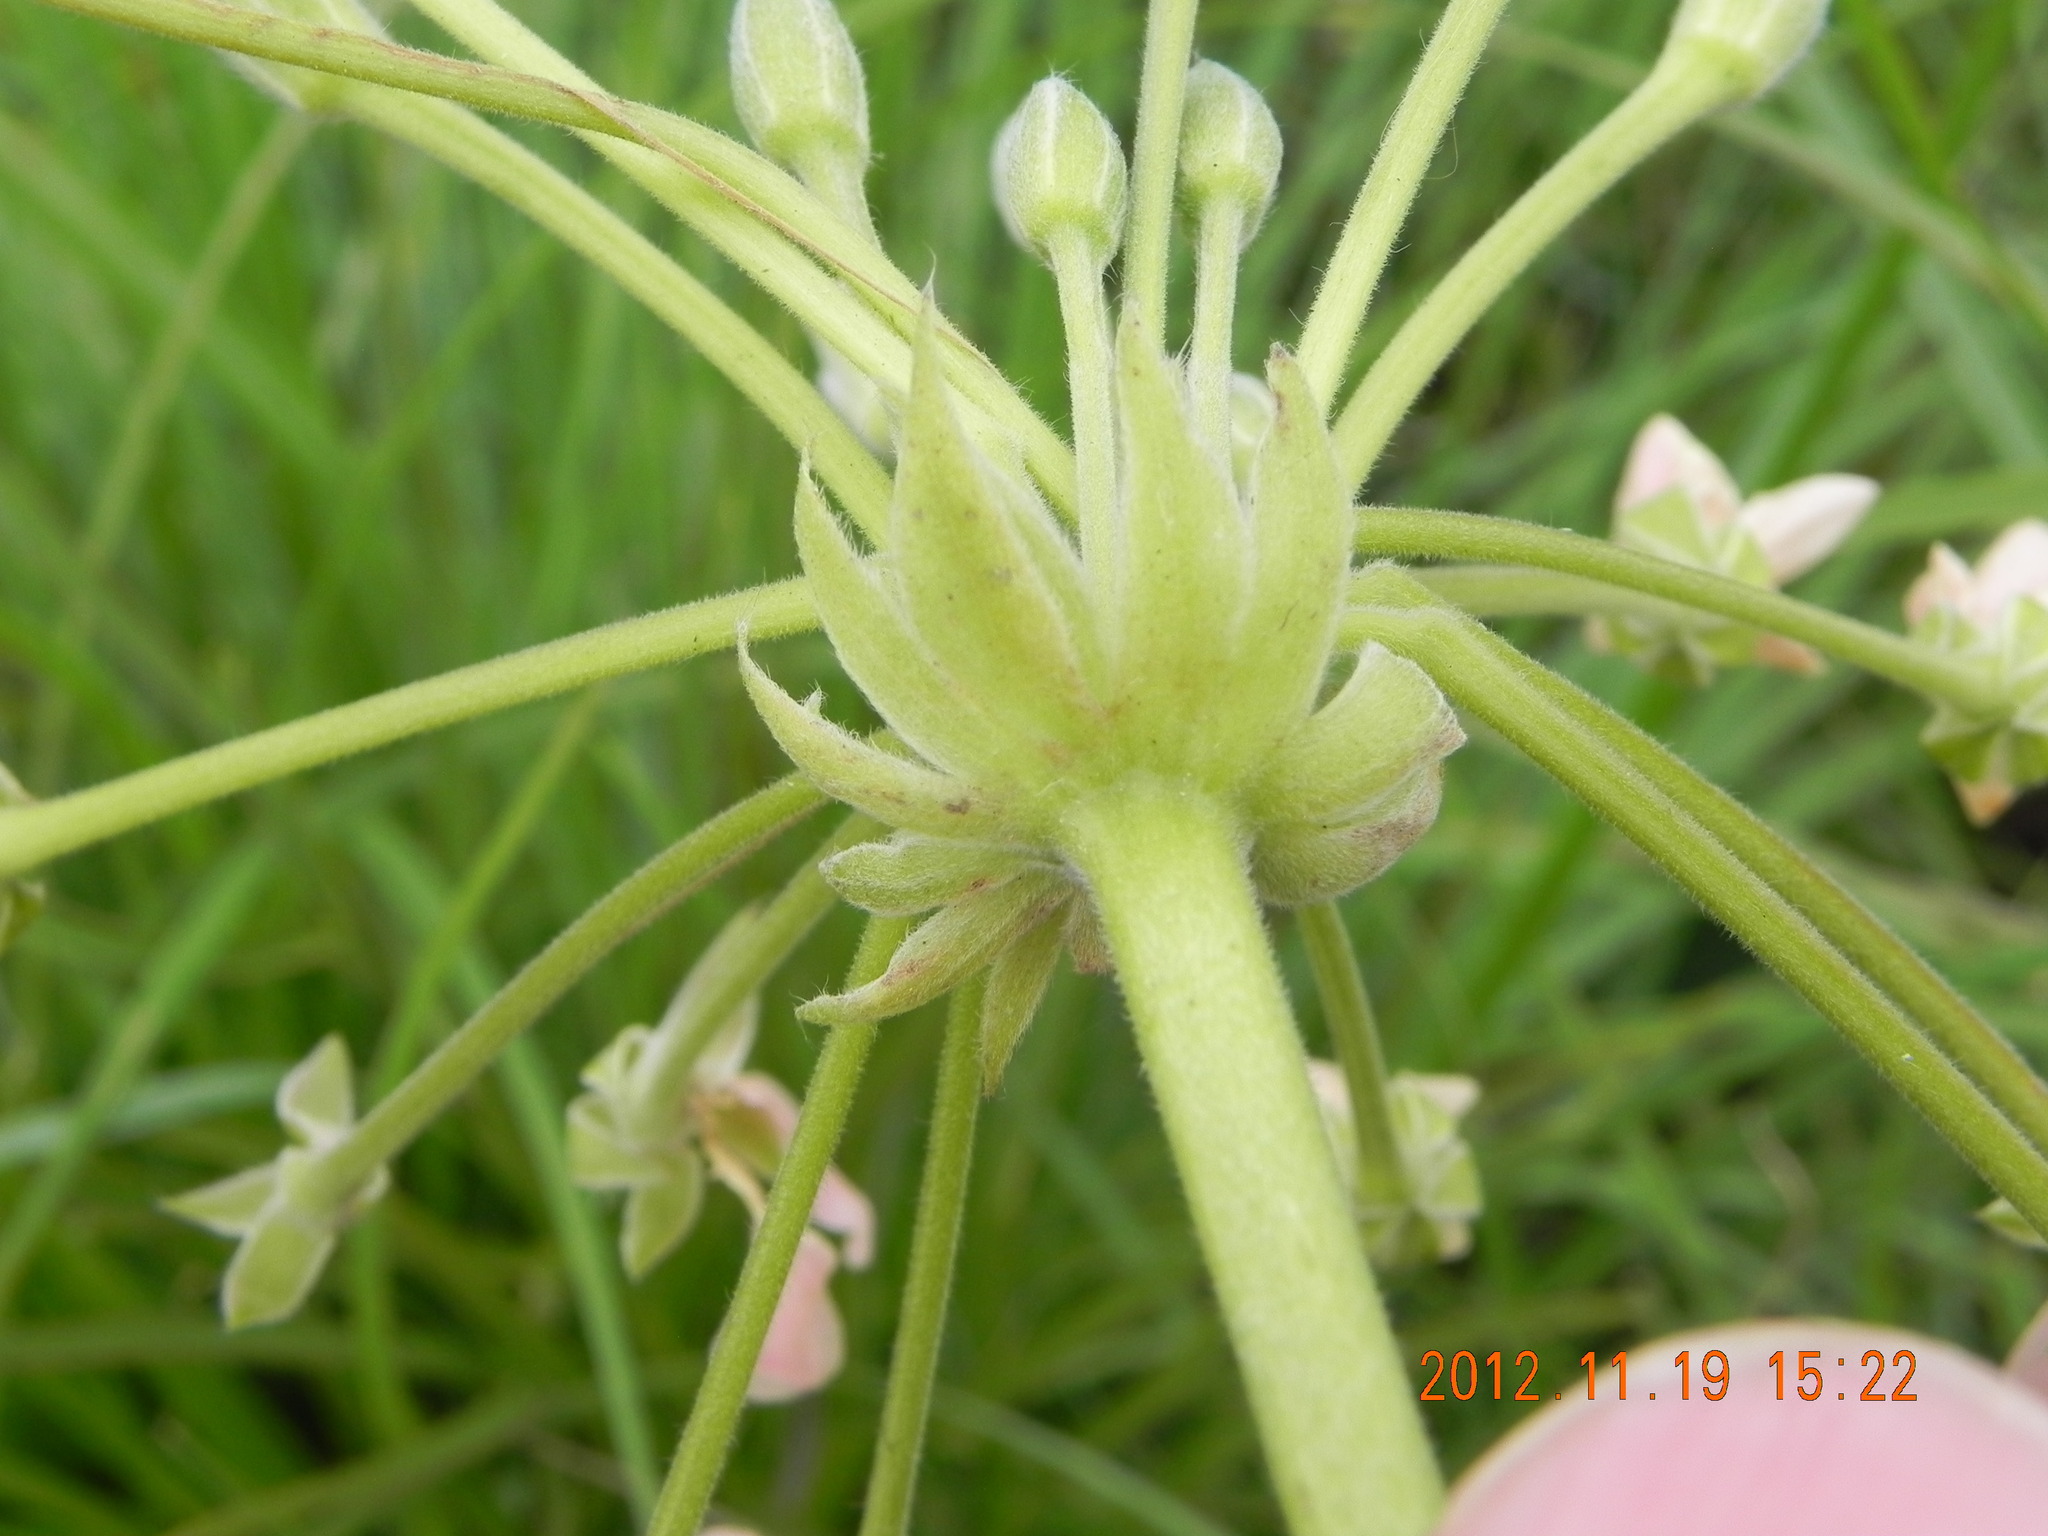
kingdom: Plantae
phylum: Tracheophyta
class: Magnoliopsida
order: Geraniales
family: Geraniaceae
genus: Pelargonium
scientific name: Pelargonium luridum
